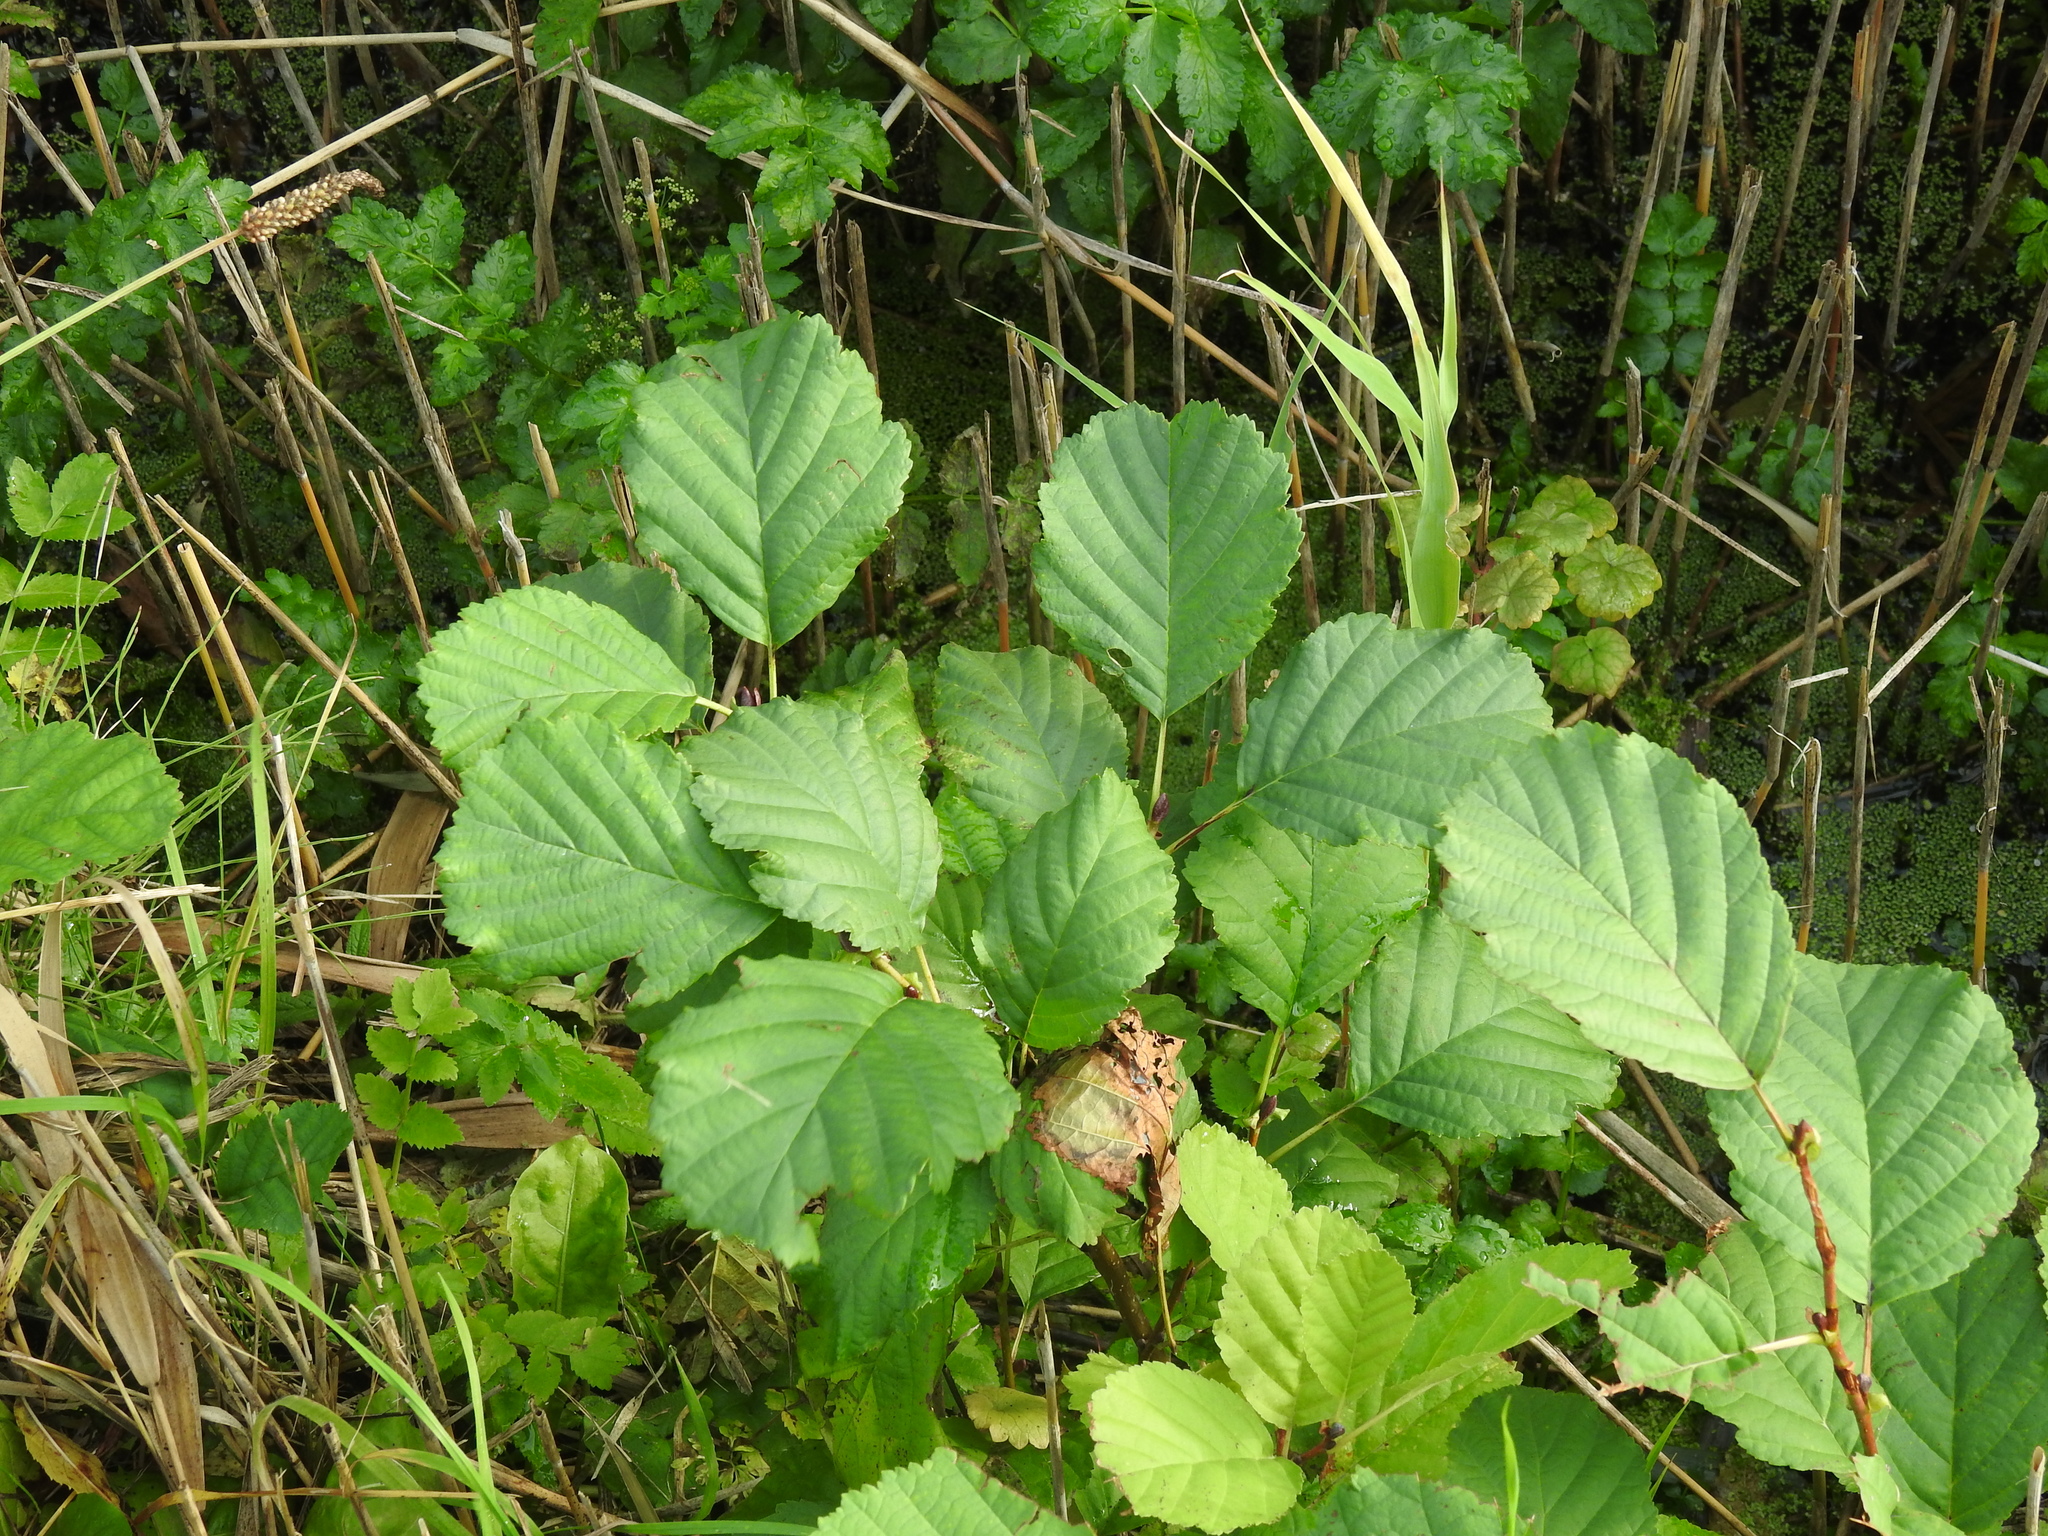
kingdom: Plantae
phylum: Tracheophyta
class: Magnoliopsida
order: Fagales
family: Betulaceae
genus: Alnus
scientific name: Alnus glutinosa
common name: Black alder
